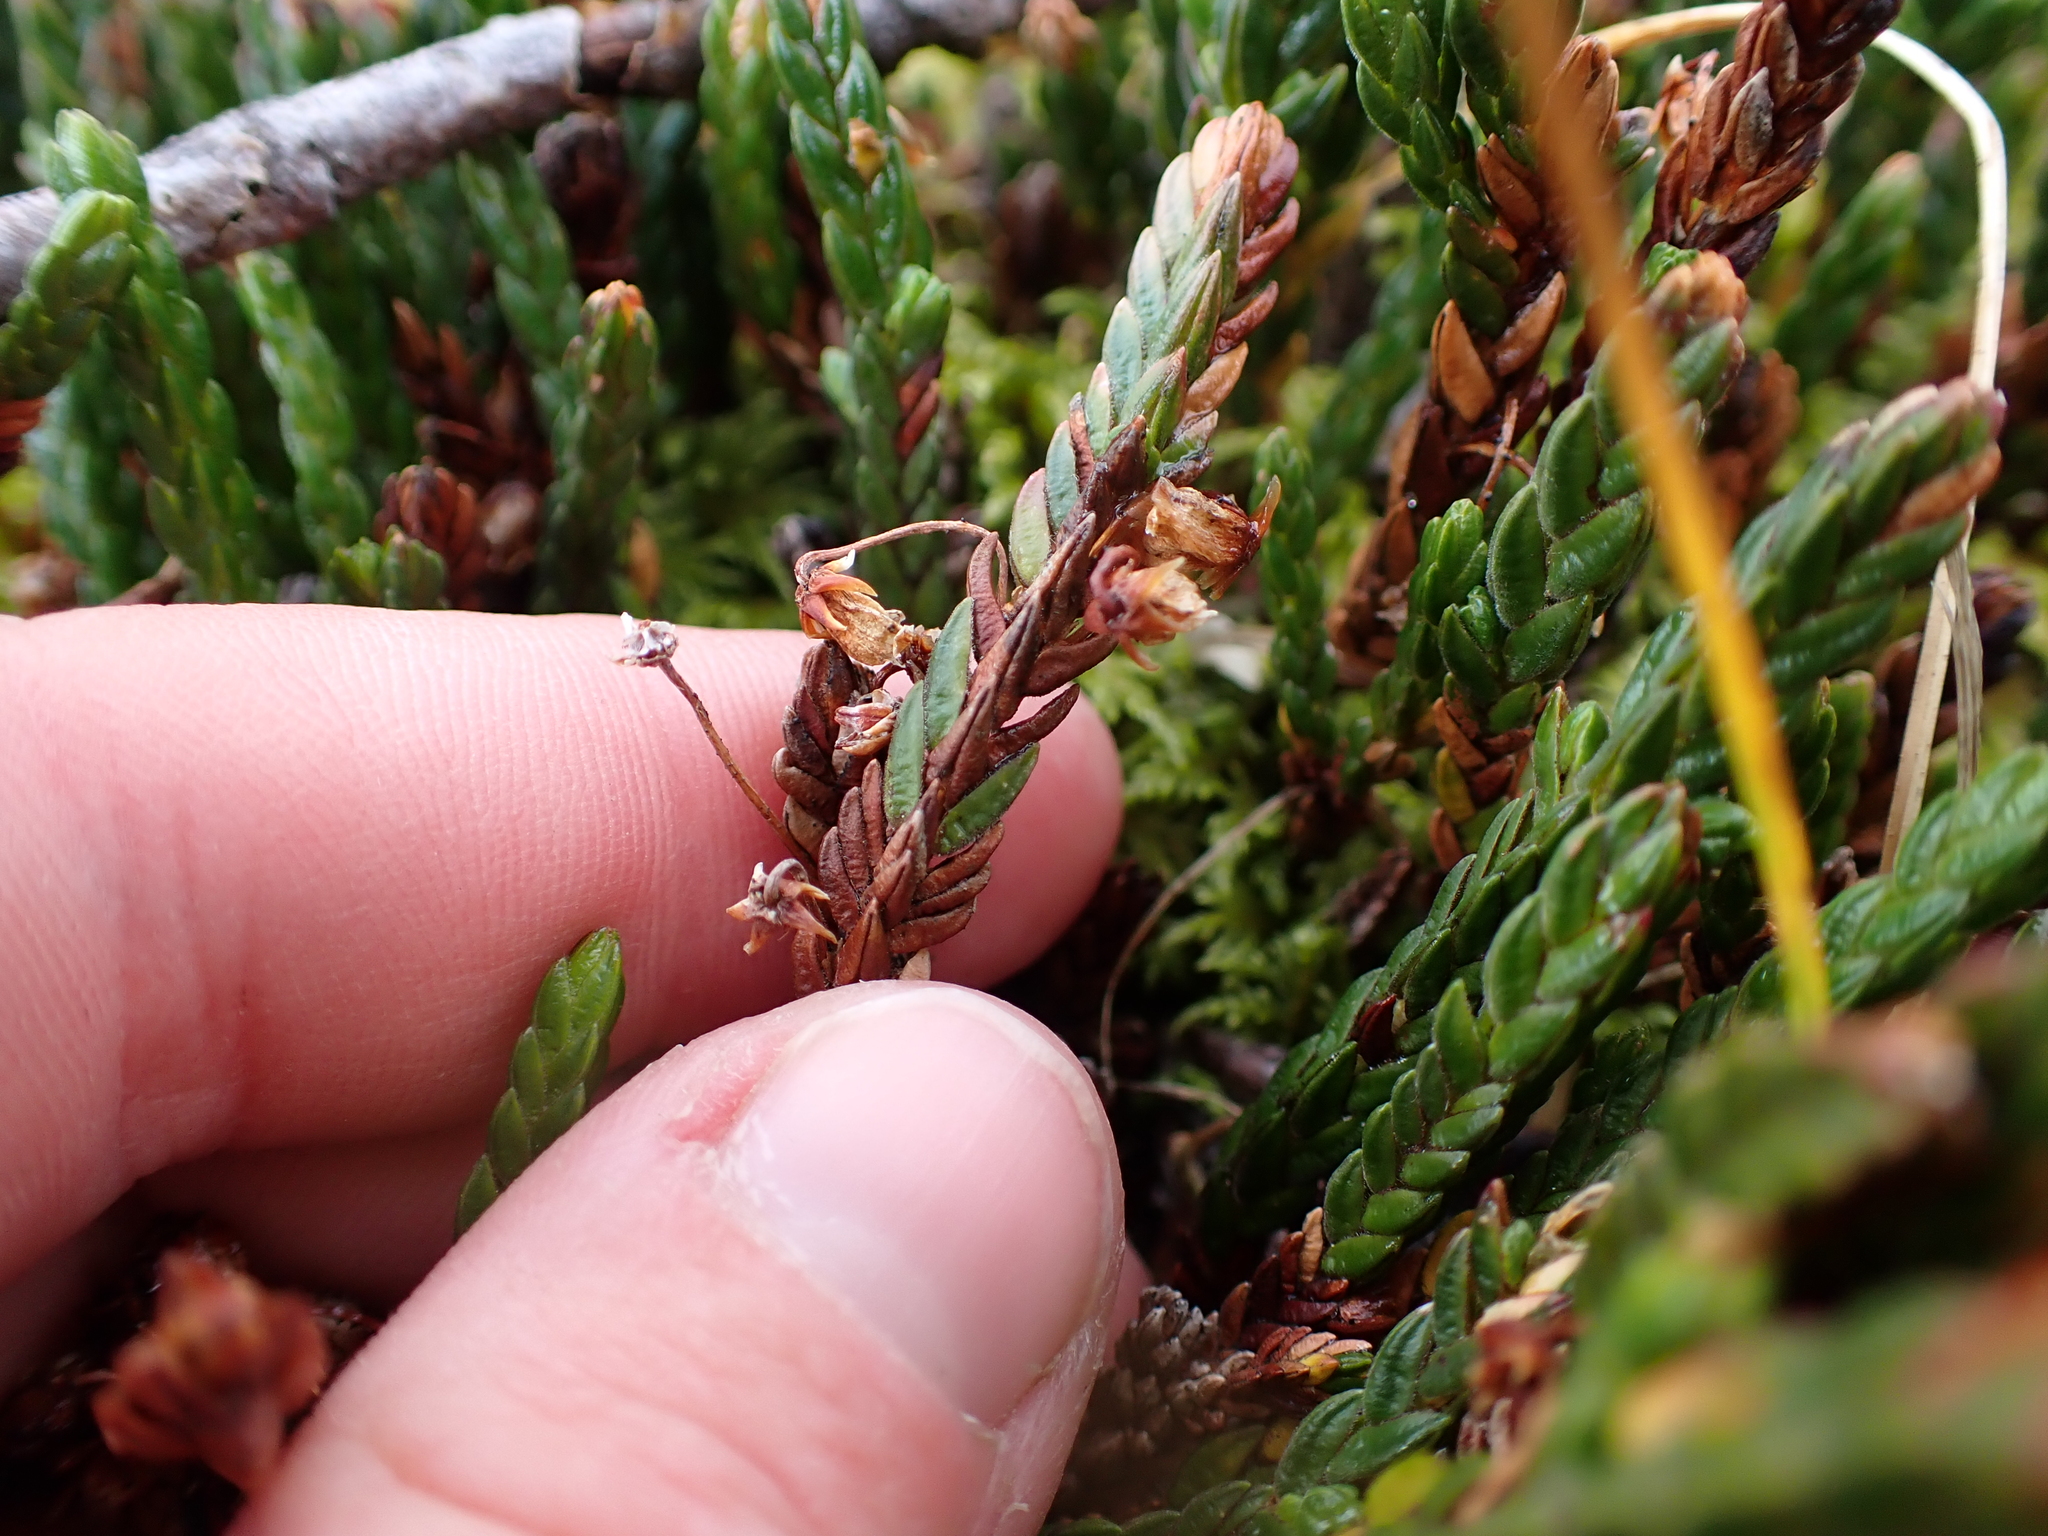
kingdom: Plantae
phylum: Tracheophyta
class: Magnoliopsida
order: Ericales
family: Ericaceae
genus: Cassiope
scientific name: Cassiope tetragona
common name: Arctic bell heather
